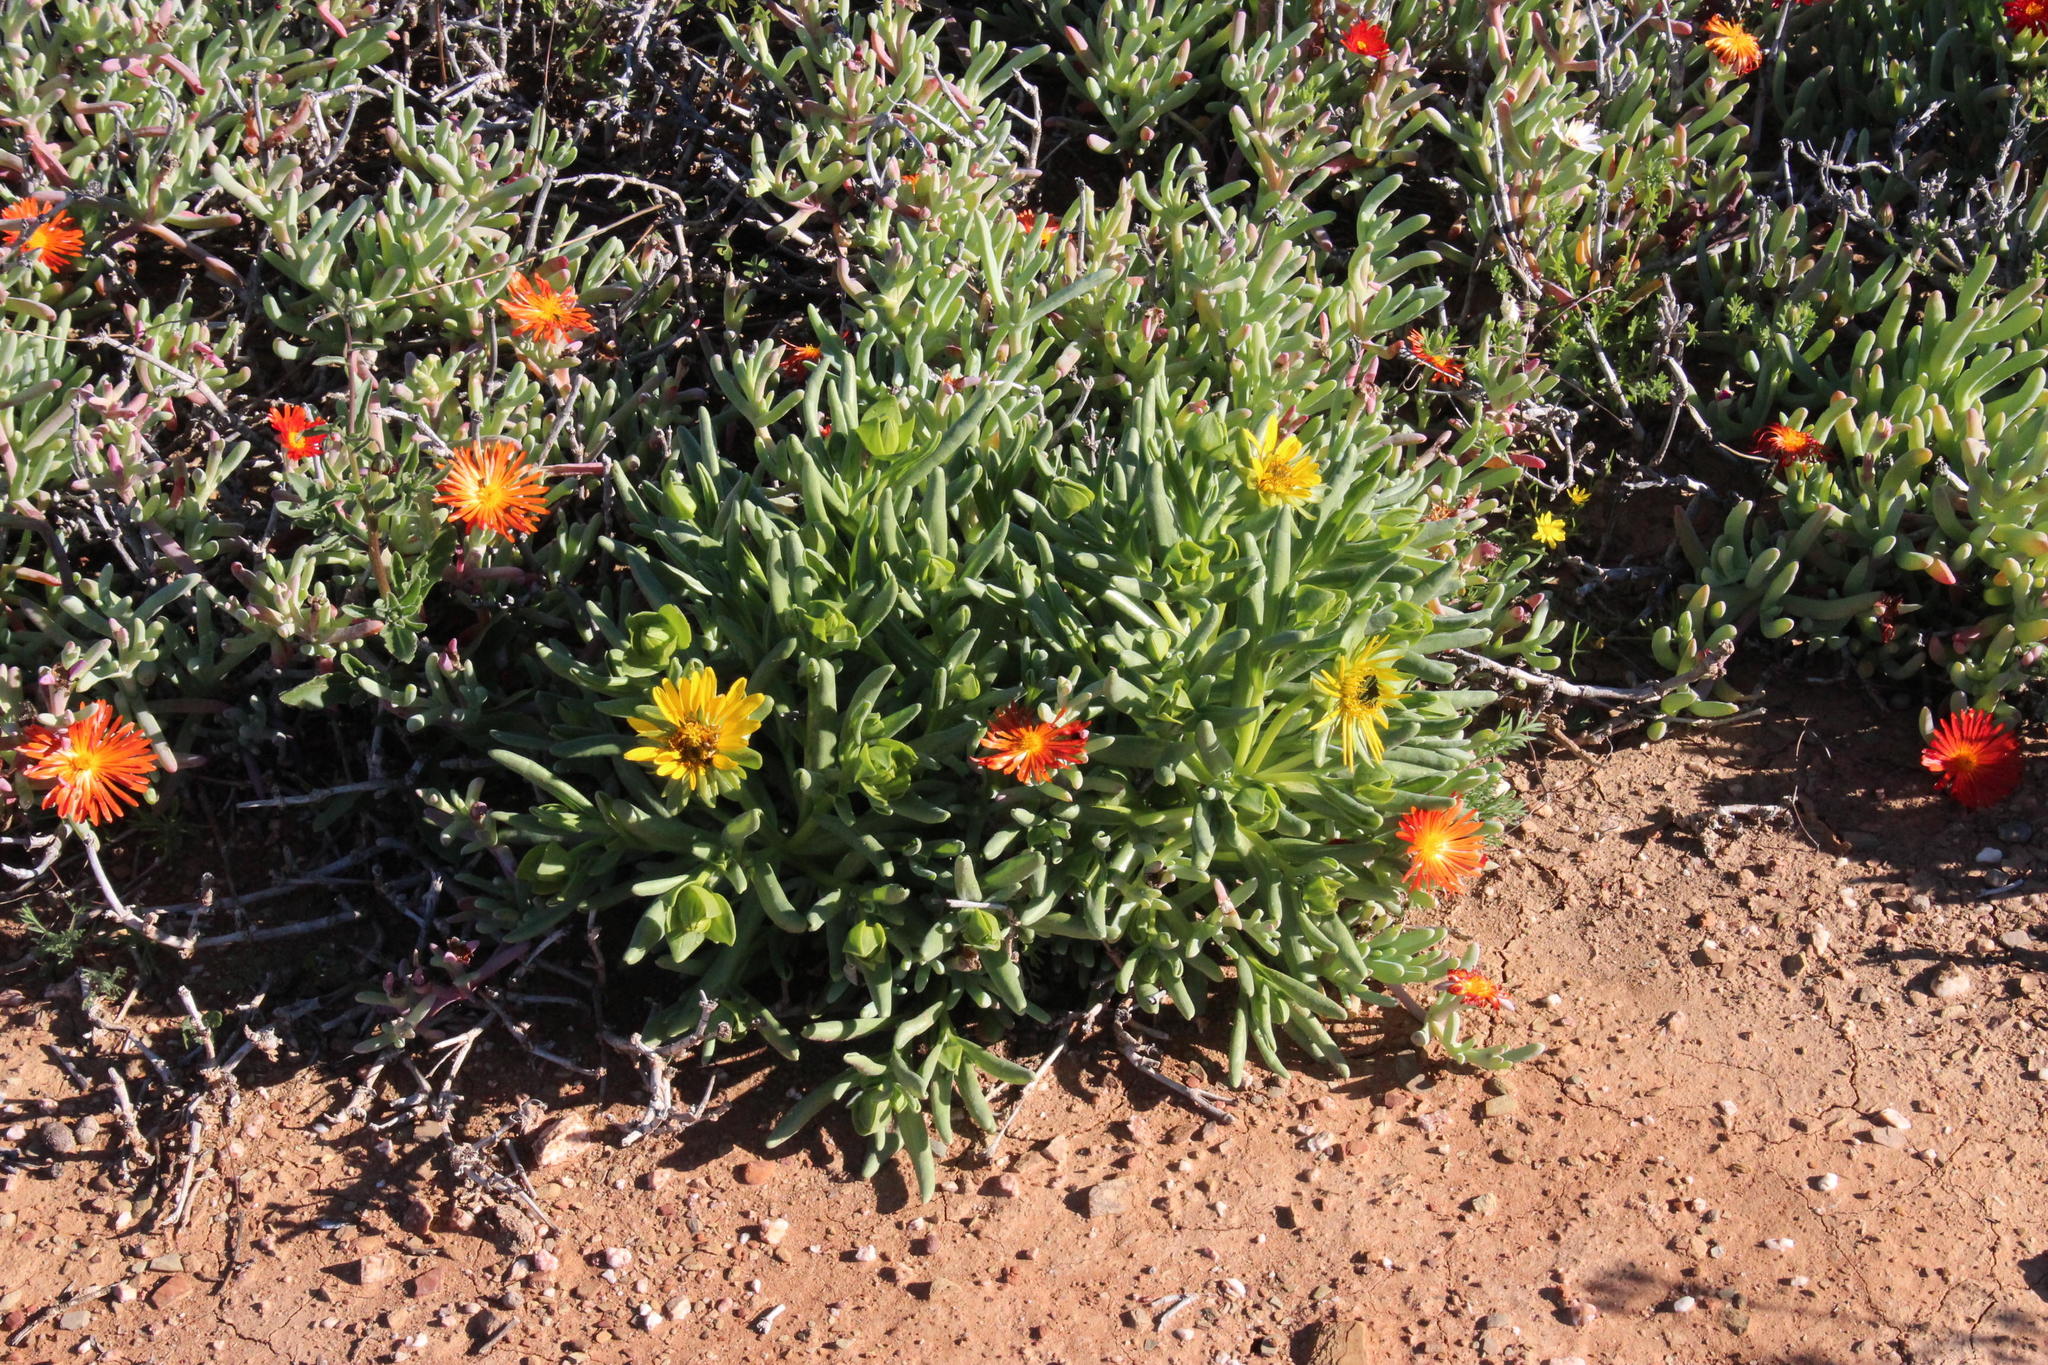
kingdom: Plantae
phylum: Tracheophyta
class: Magnoliopsida
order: Asterales
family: Asteraceae
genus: Didelta
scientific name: Didelta carnosa
